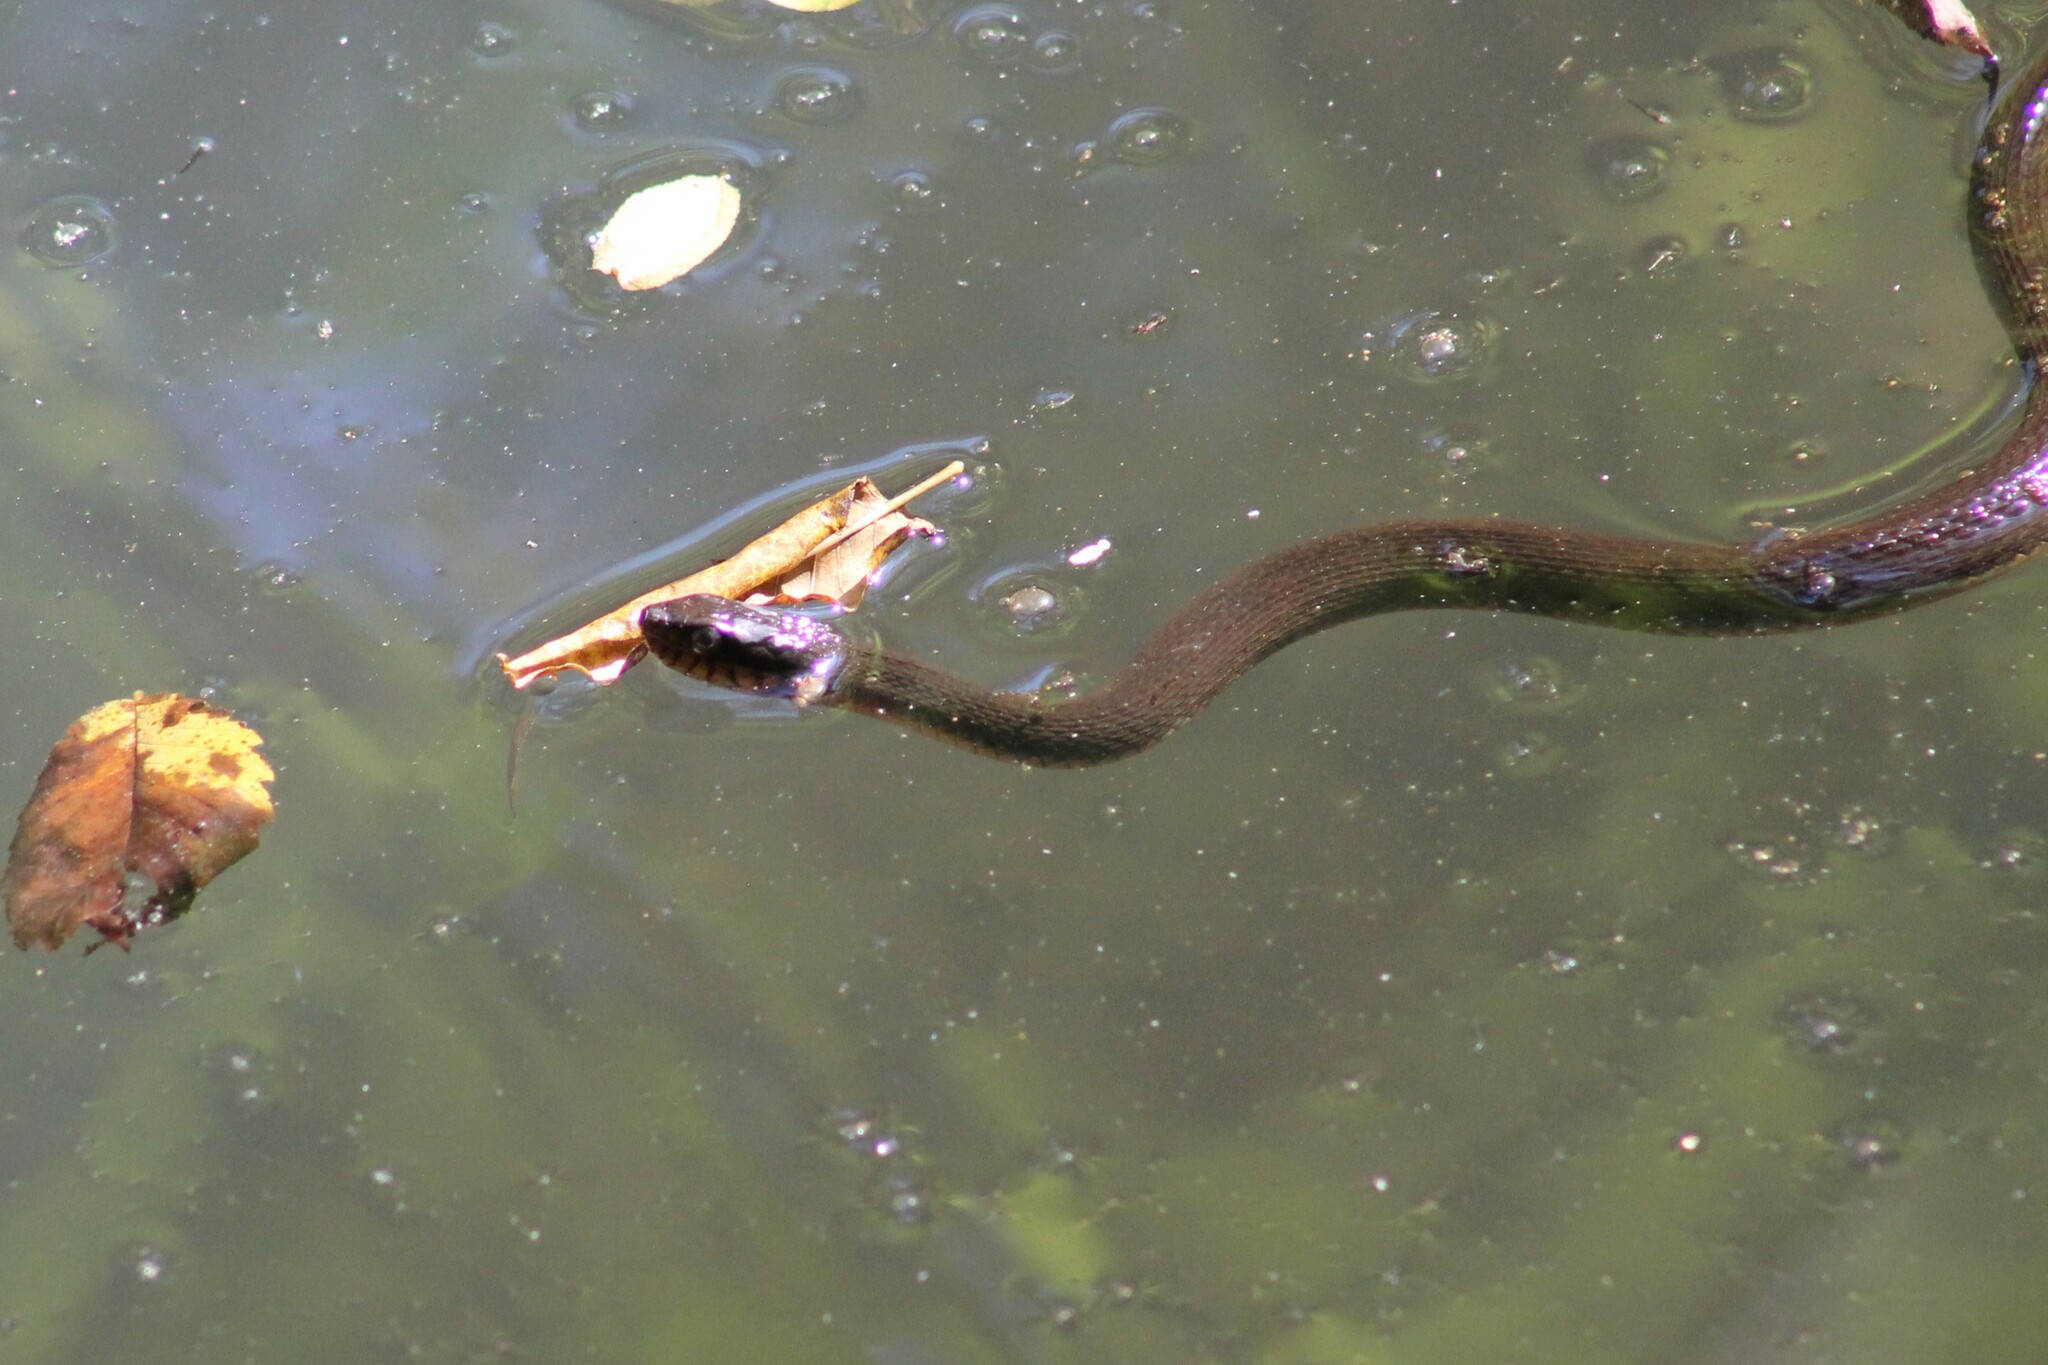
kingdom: Animalia
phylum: Chordata
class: Squamata
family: Colubridae
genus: Nerodia
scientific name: Nerodia erythrogaster
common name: Plainbelly water snake
